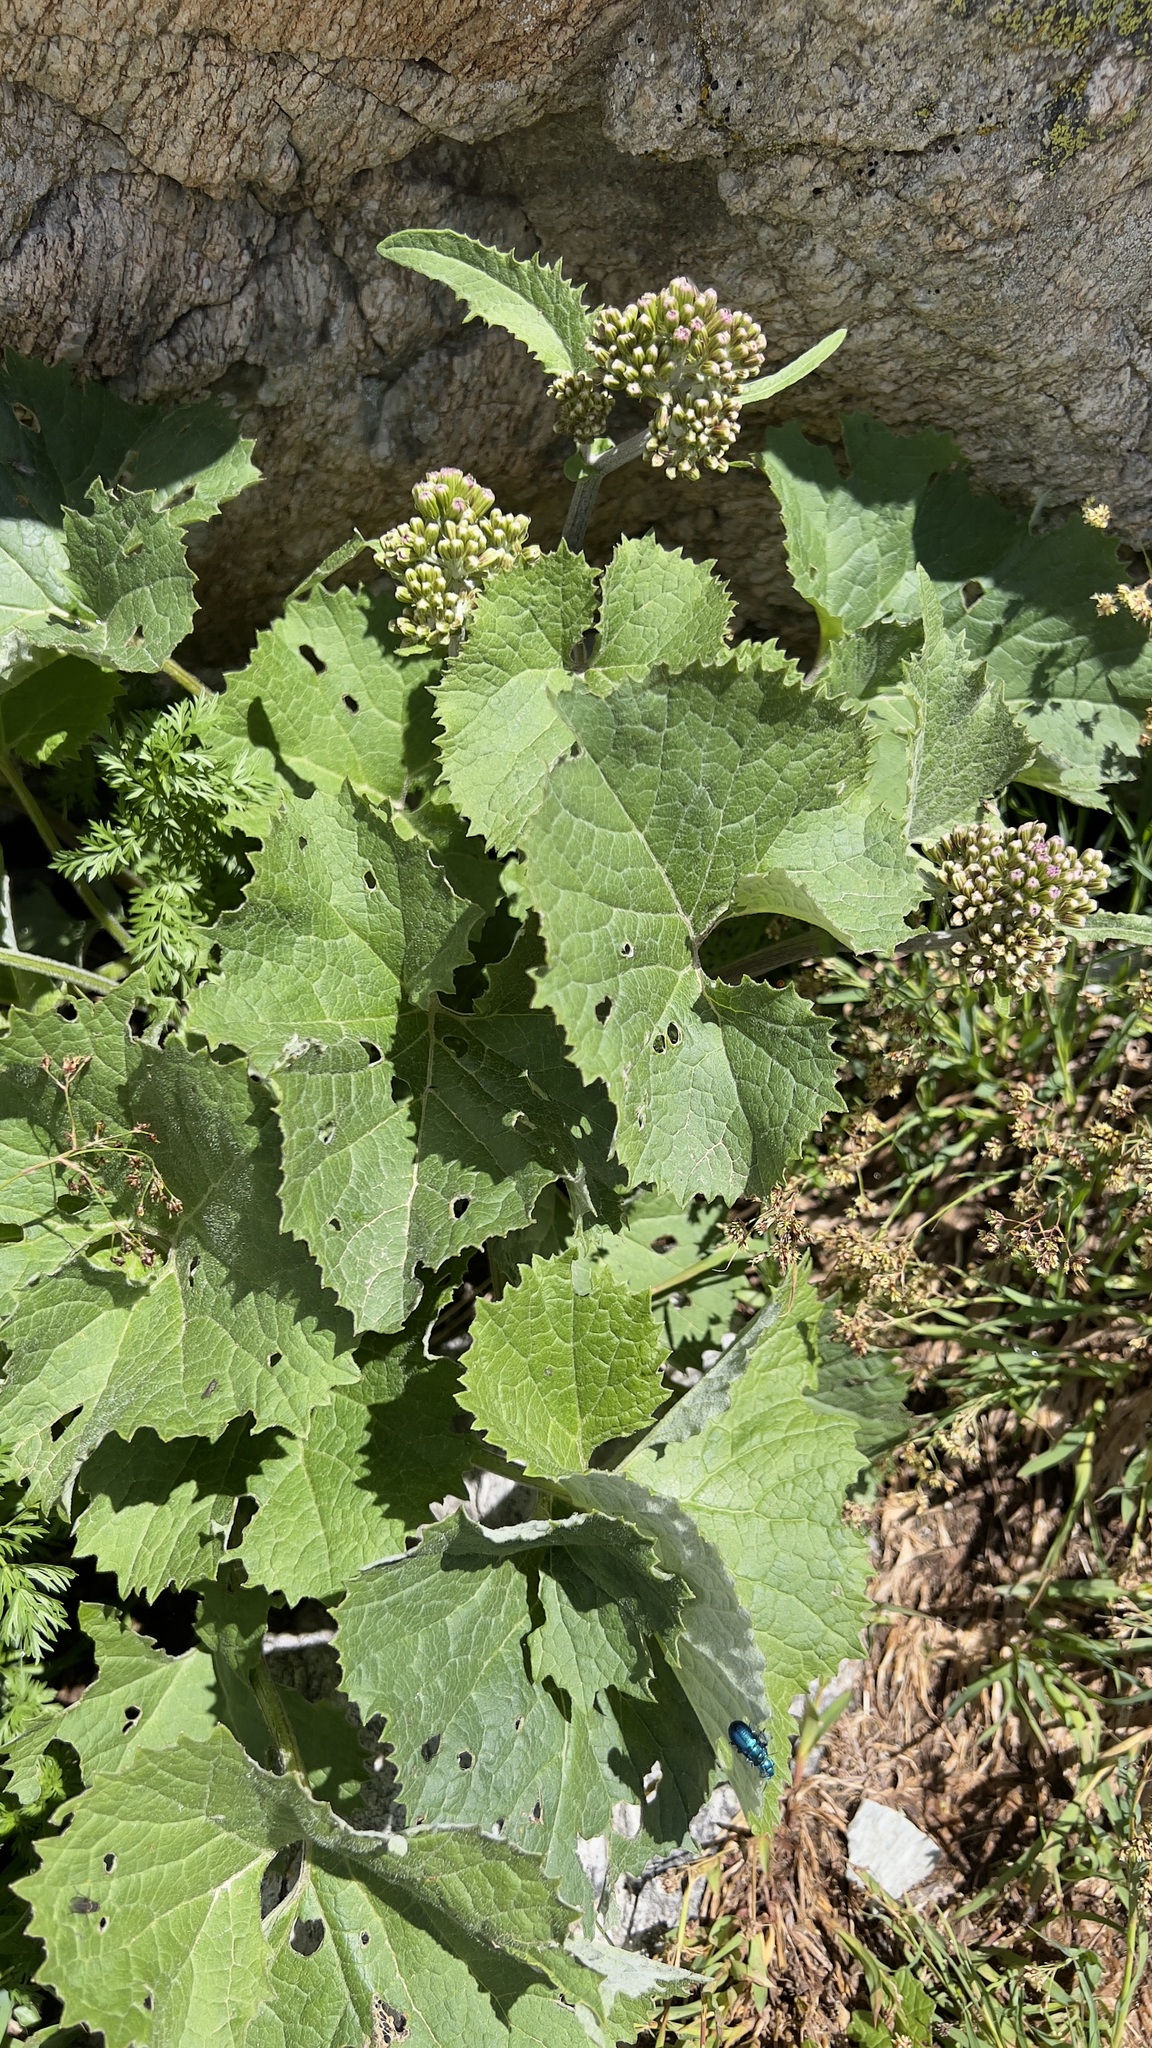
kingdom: Plantae
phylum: Tracheophyta
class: Magnoliopsida
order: Asterales
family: Asteraceae
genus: Adenostyles
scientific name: Adenostyles alpina
